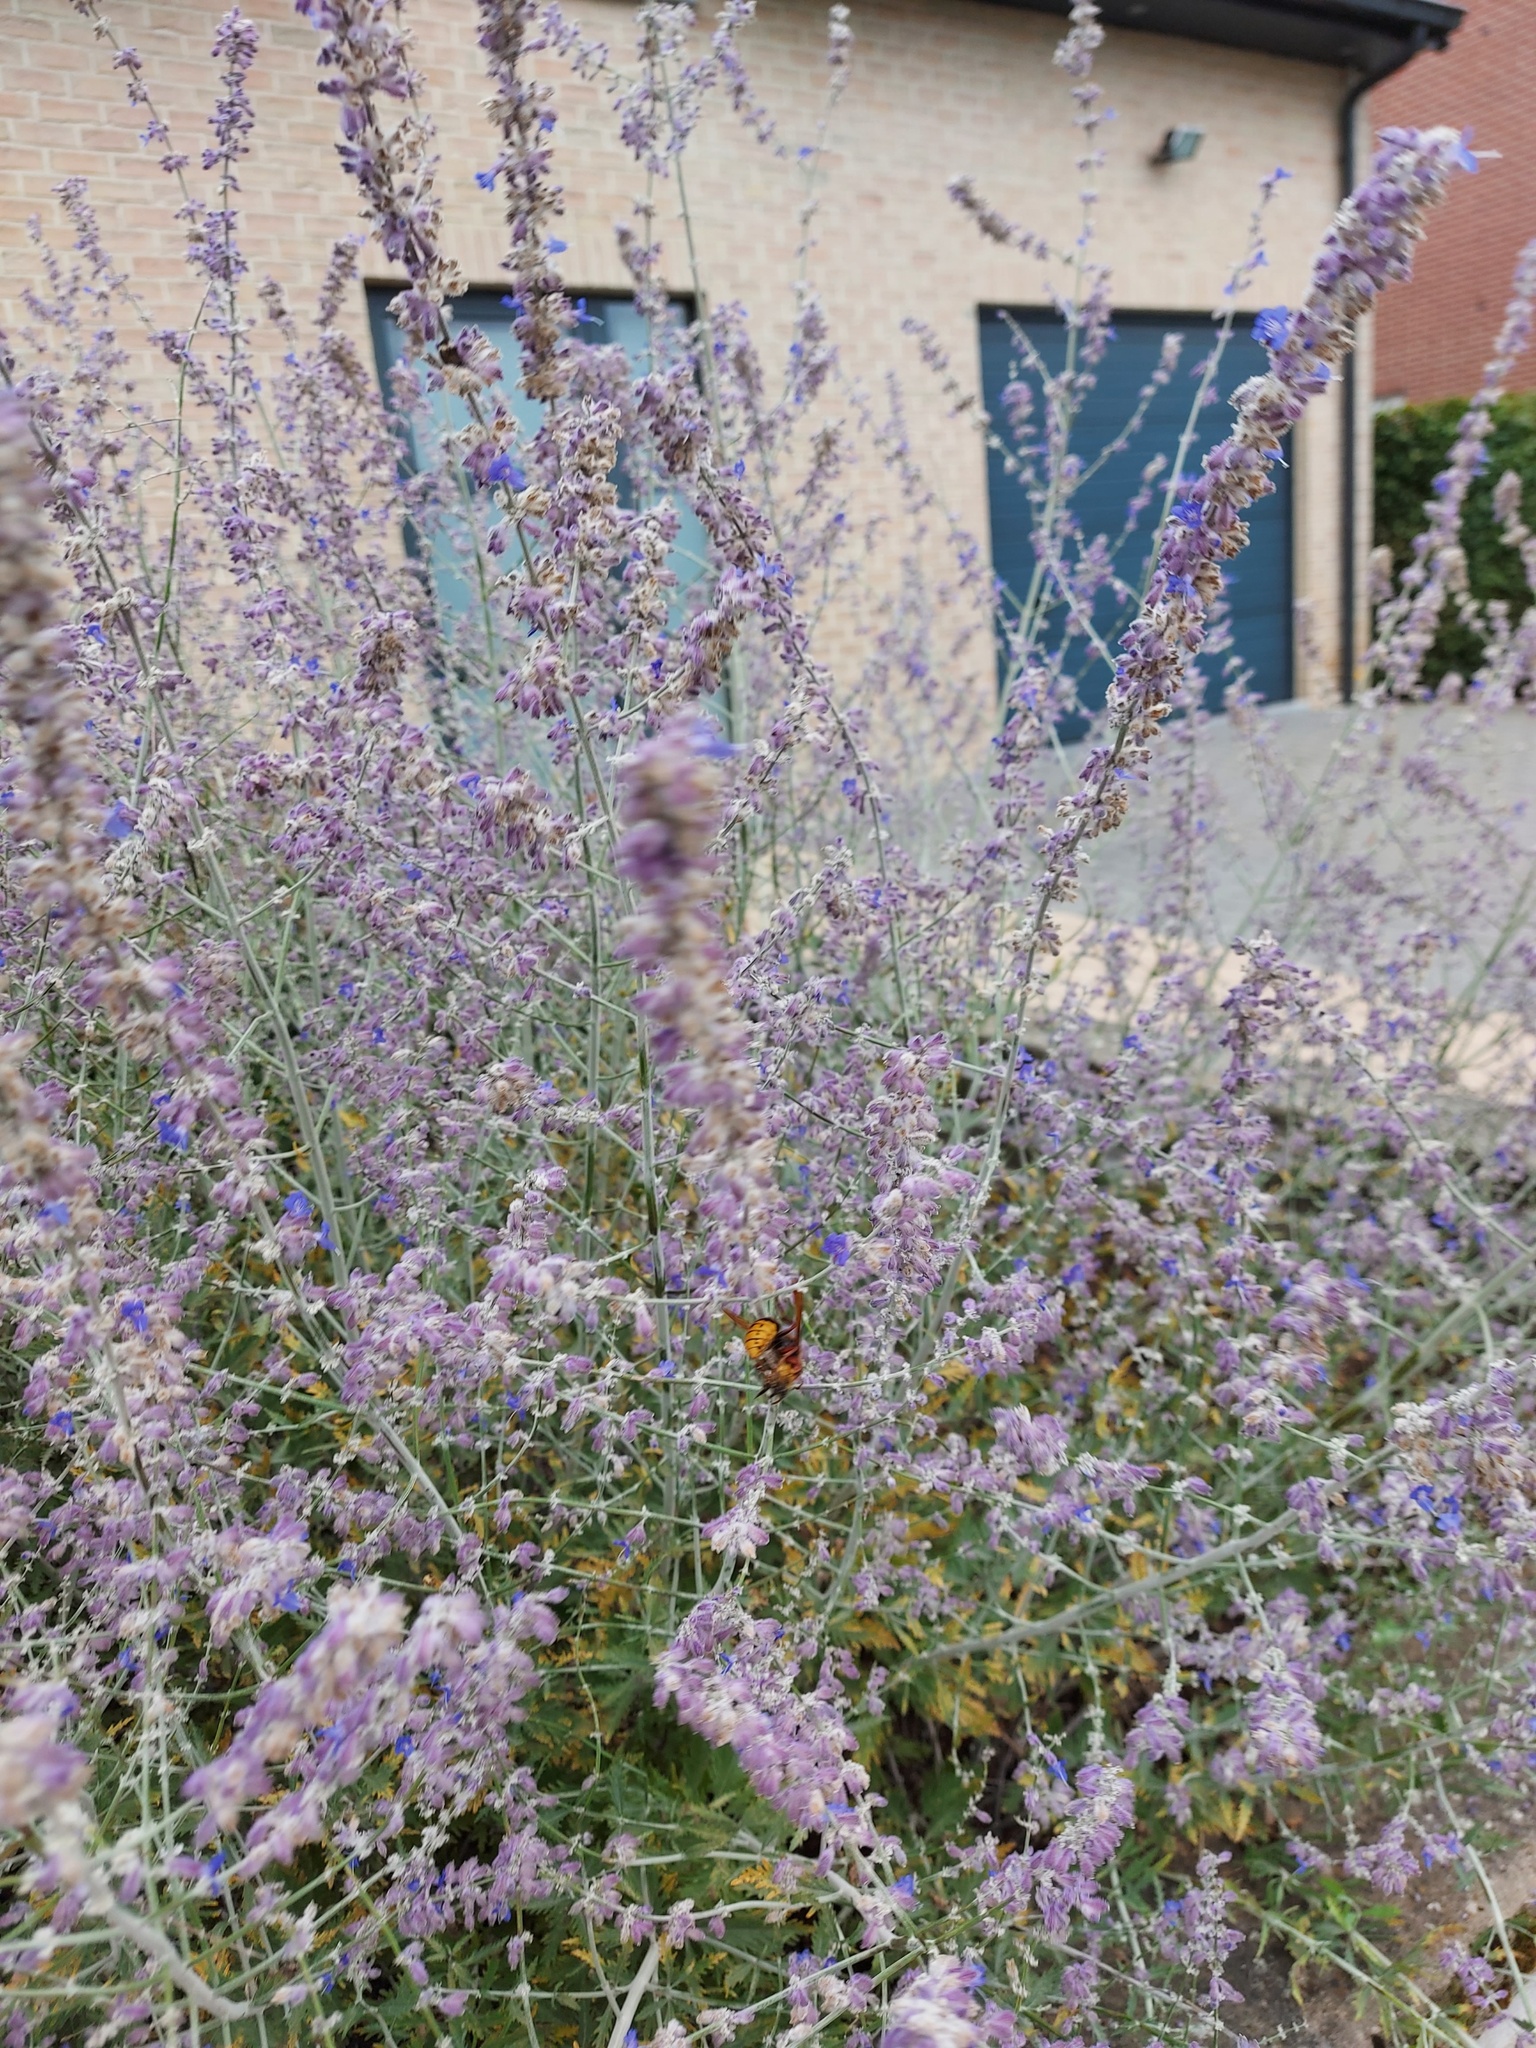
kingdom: Animalia
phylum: Arthropoda
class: Insecta
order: Hymenoptera
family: Vespidae
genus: Vespa
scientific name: Vespa crabro
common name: Hornet
